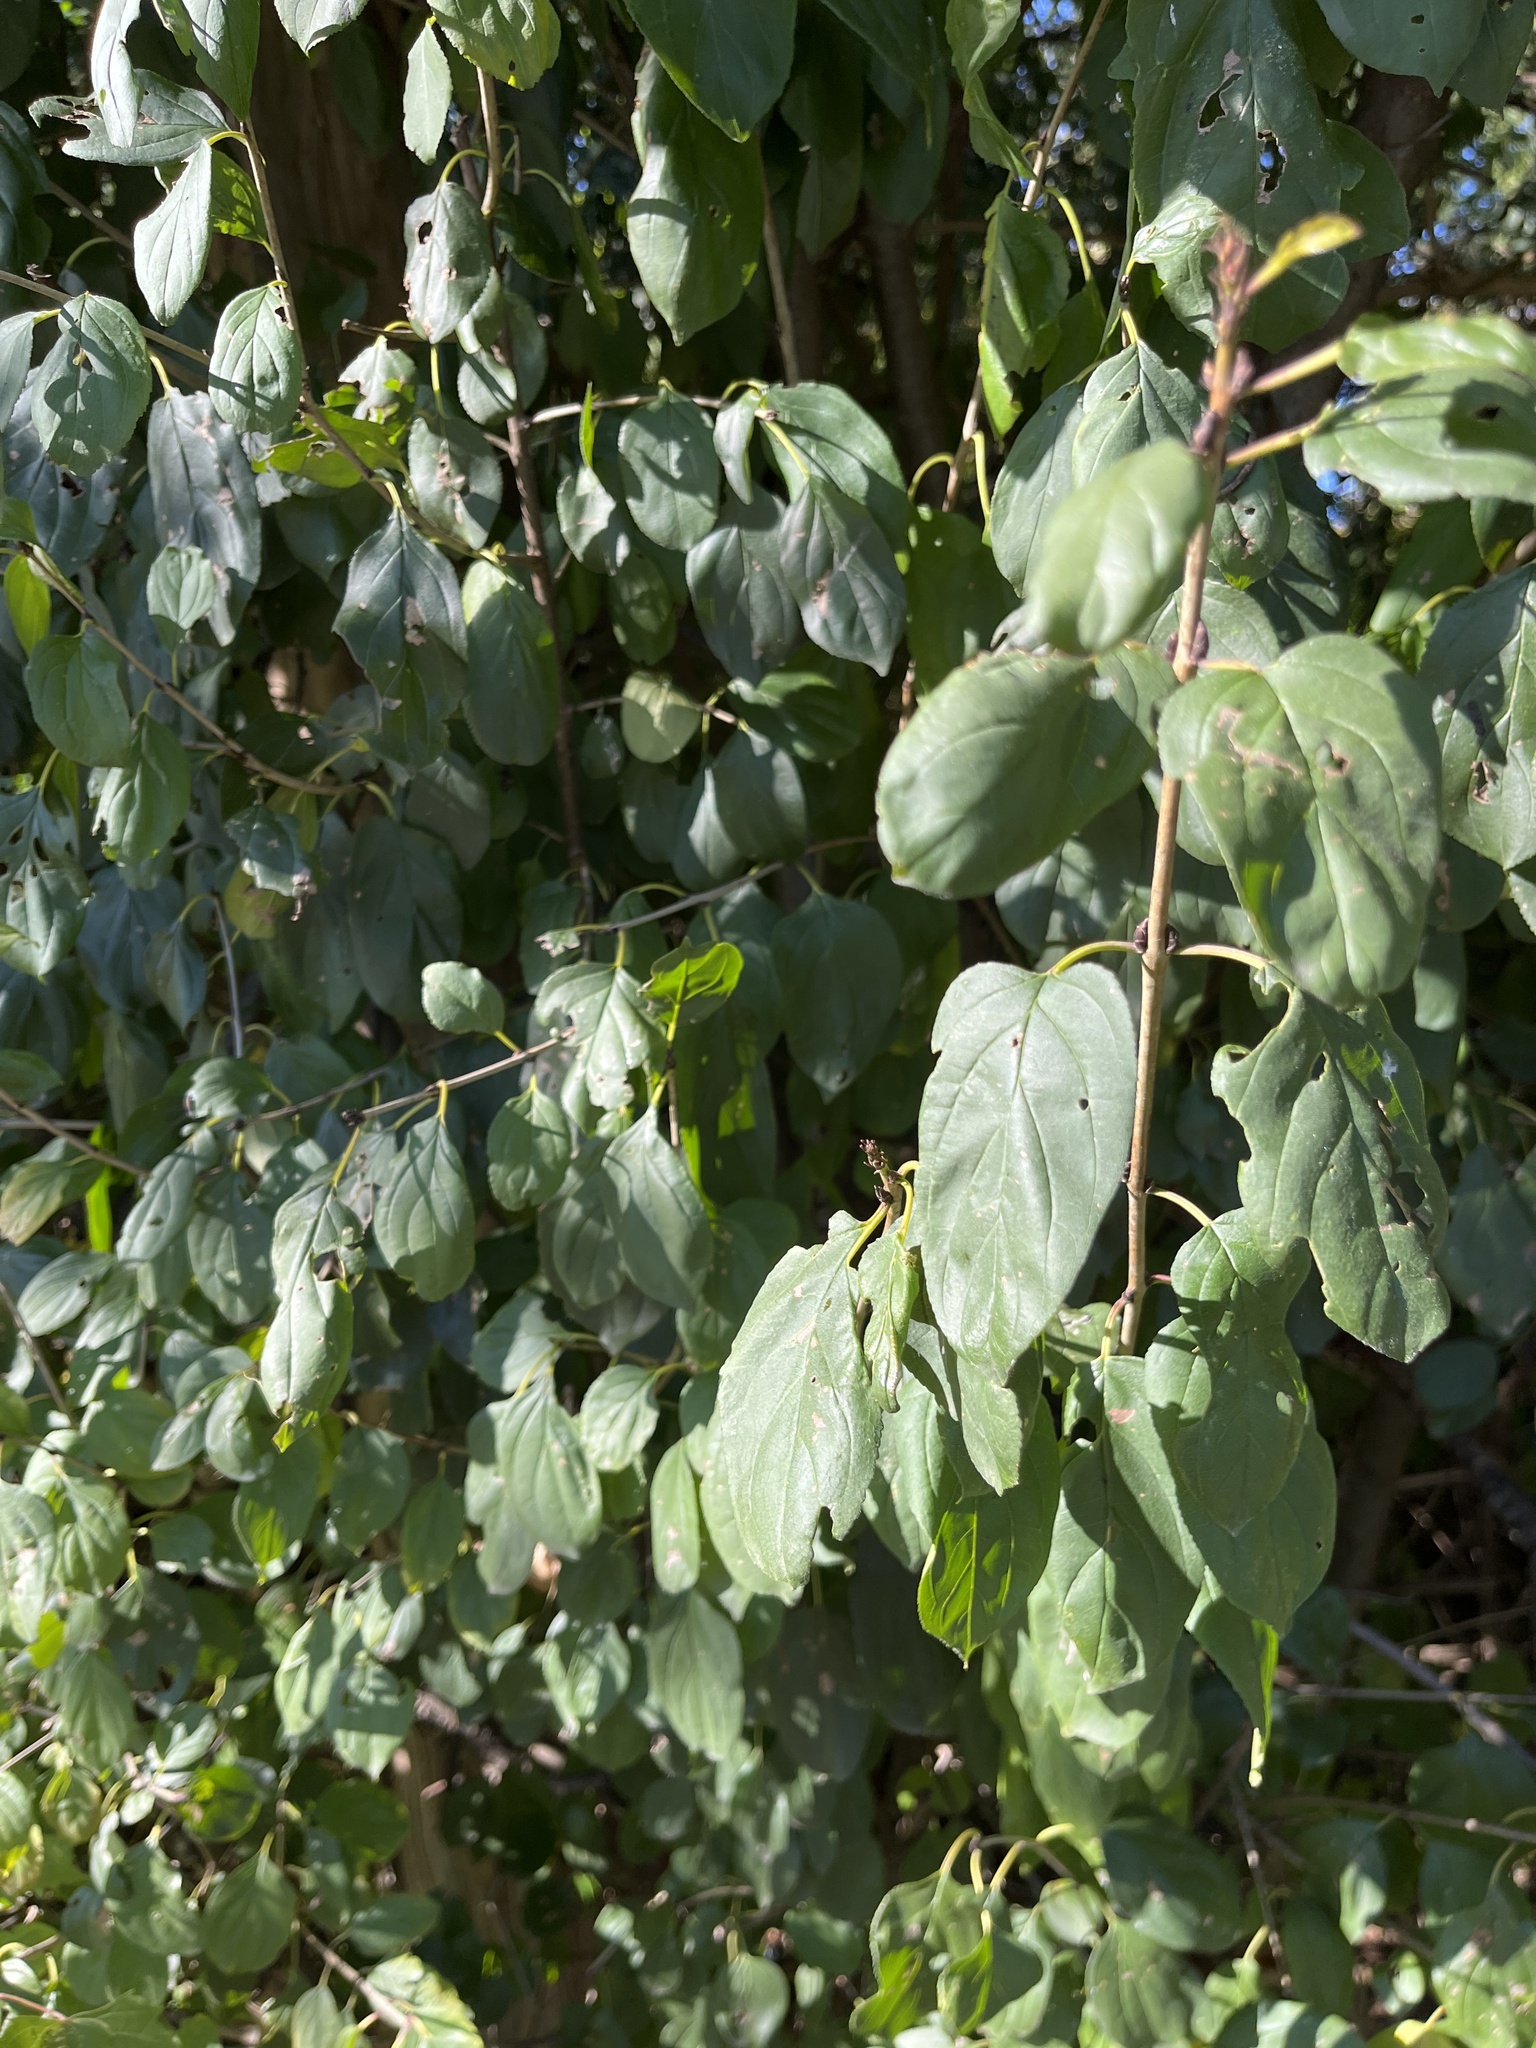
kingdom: Plantae
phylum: Tracheophyta
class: Magnoliopsida
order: Rosales
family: Rhamnaceae
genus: Rhamnus
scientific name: Rhamnus cathartica
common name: Common buckthorn
